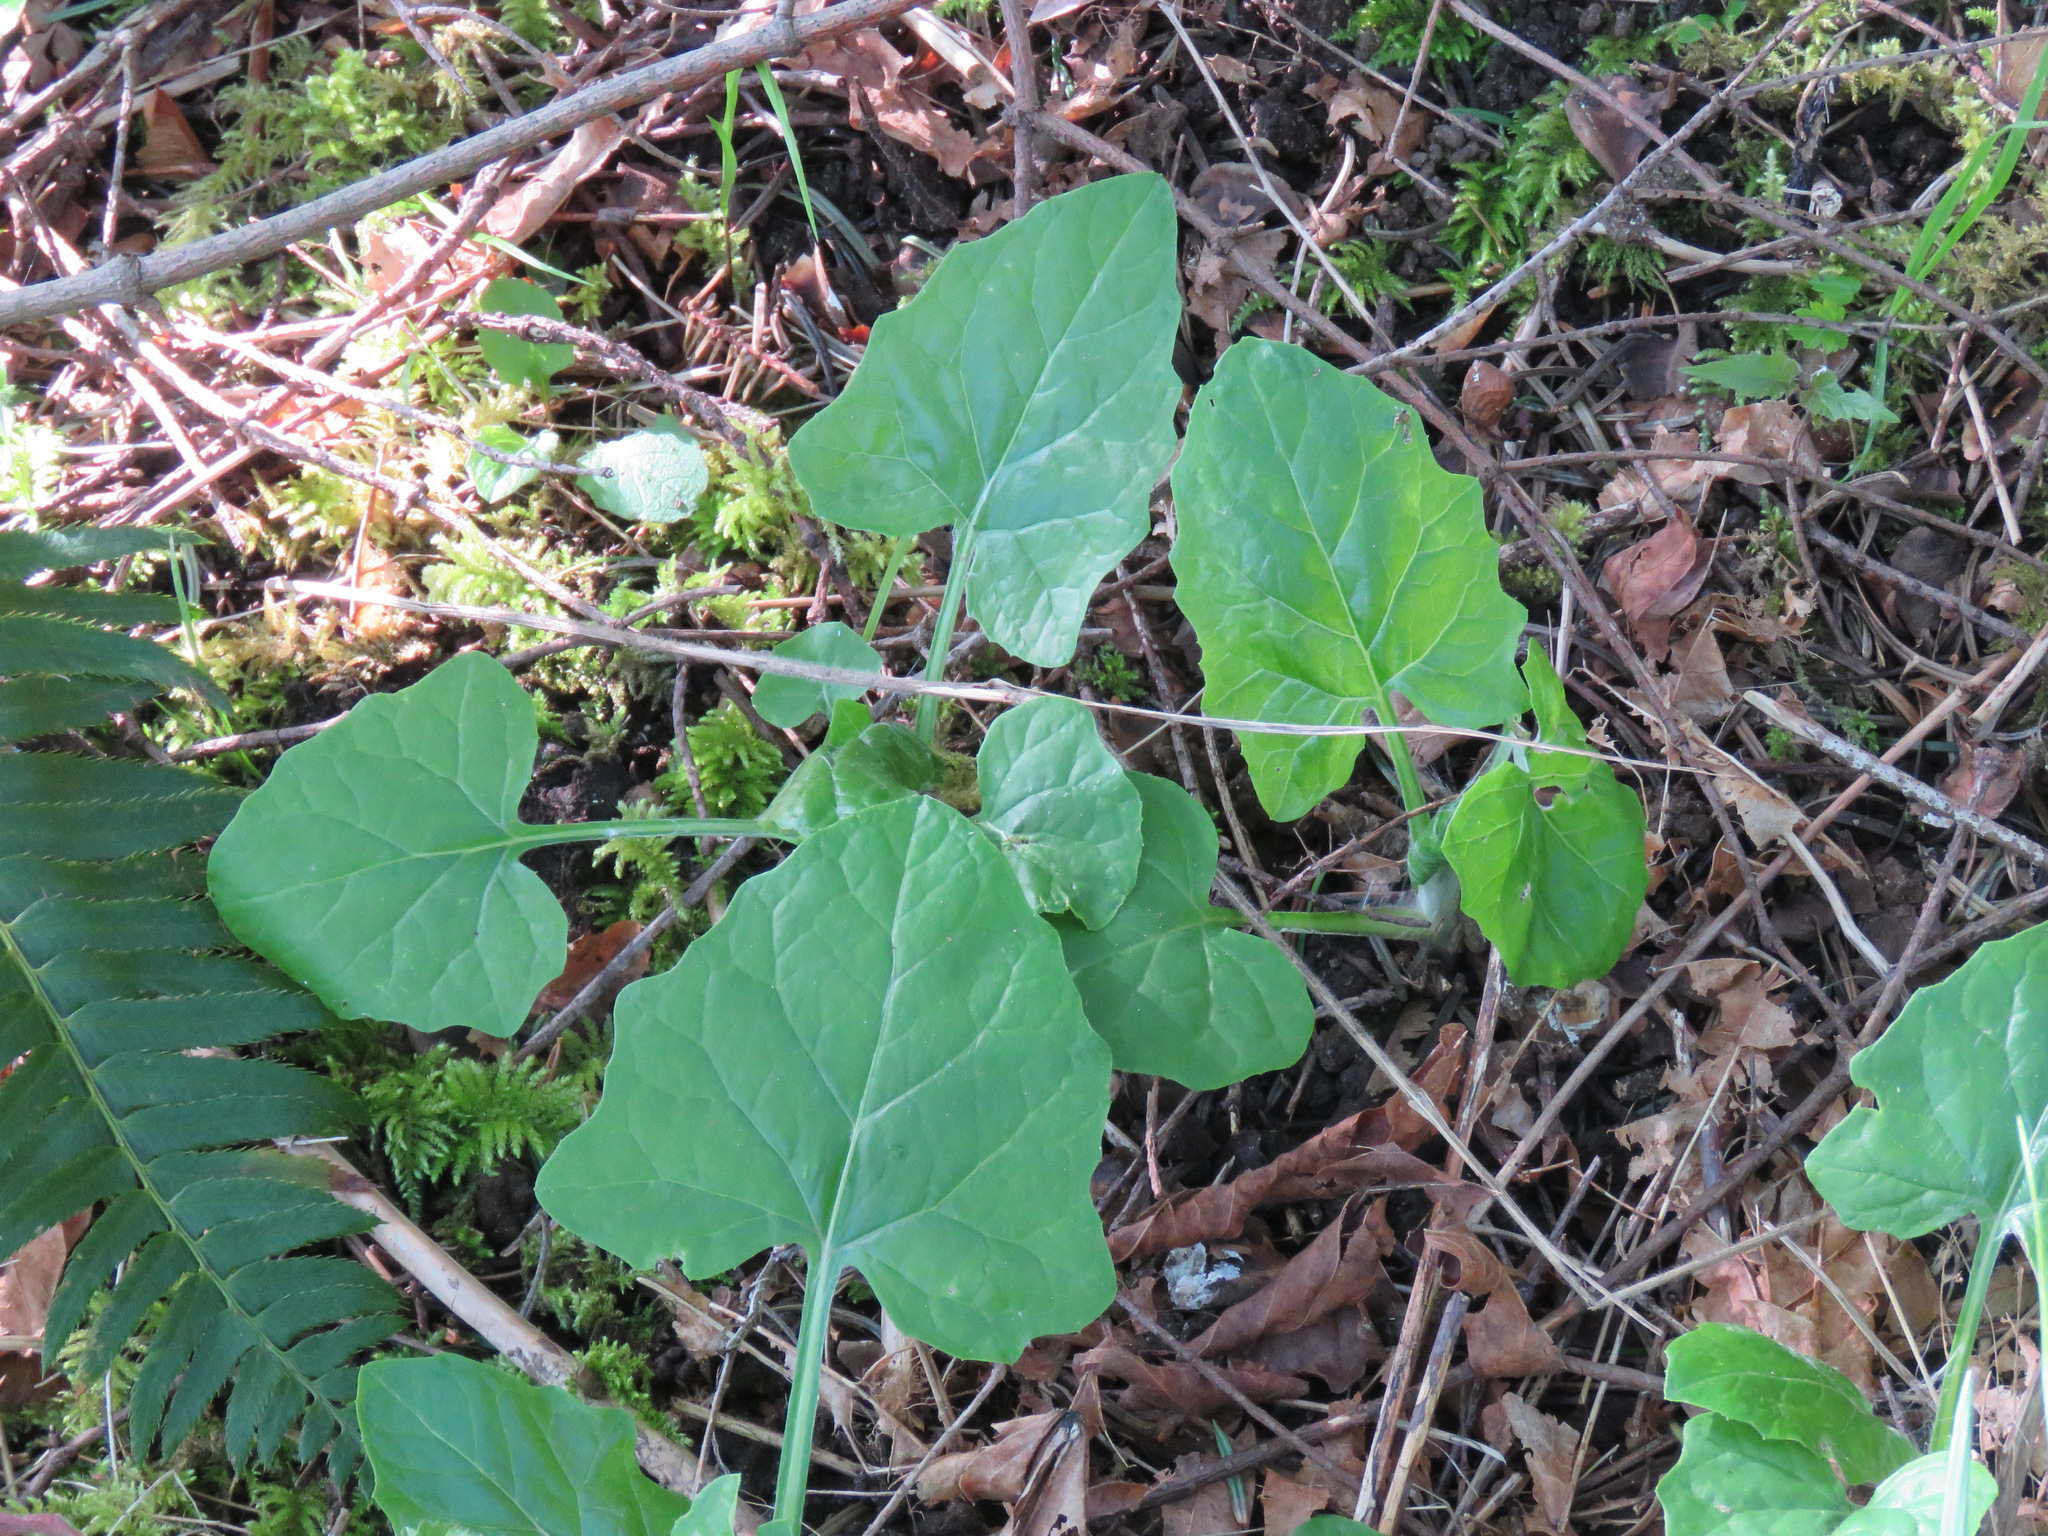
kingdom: Plantae
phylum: Tracheophyta
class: Magnoliopsida
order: Asterales
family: Asteraceae
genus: Adenocaulon
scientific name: Adenocaulon bicolor
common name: Trailplant
